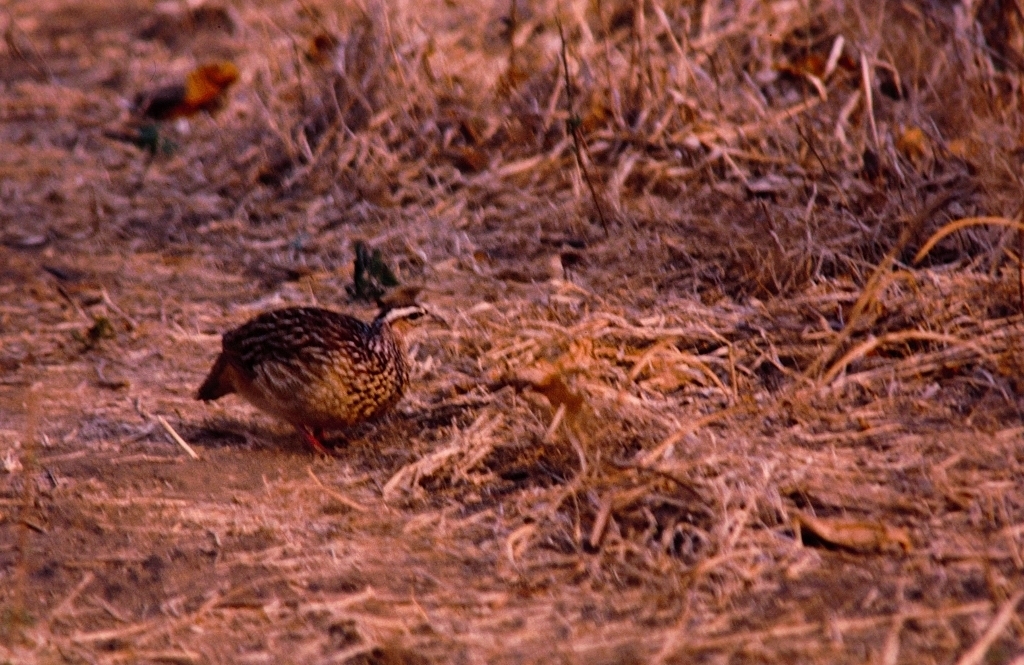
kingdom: Animalia
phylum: Chordata
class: Aves
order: Galliformes
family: Phasianidae
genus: Ortygornis
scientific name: Ortygornis sephaena
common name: Crested francolin
